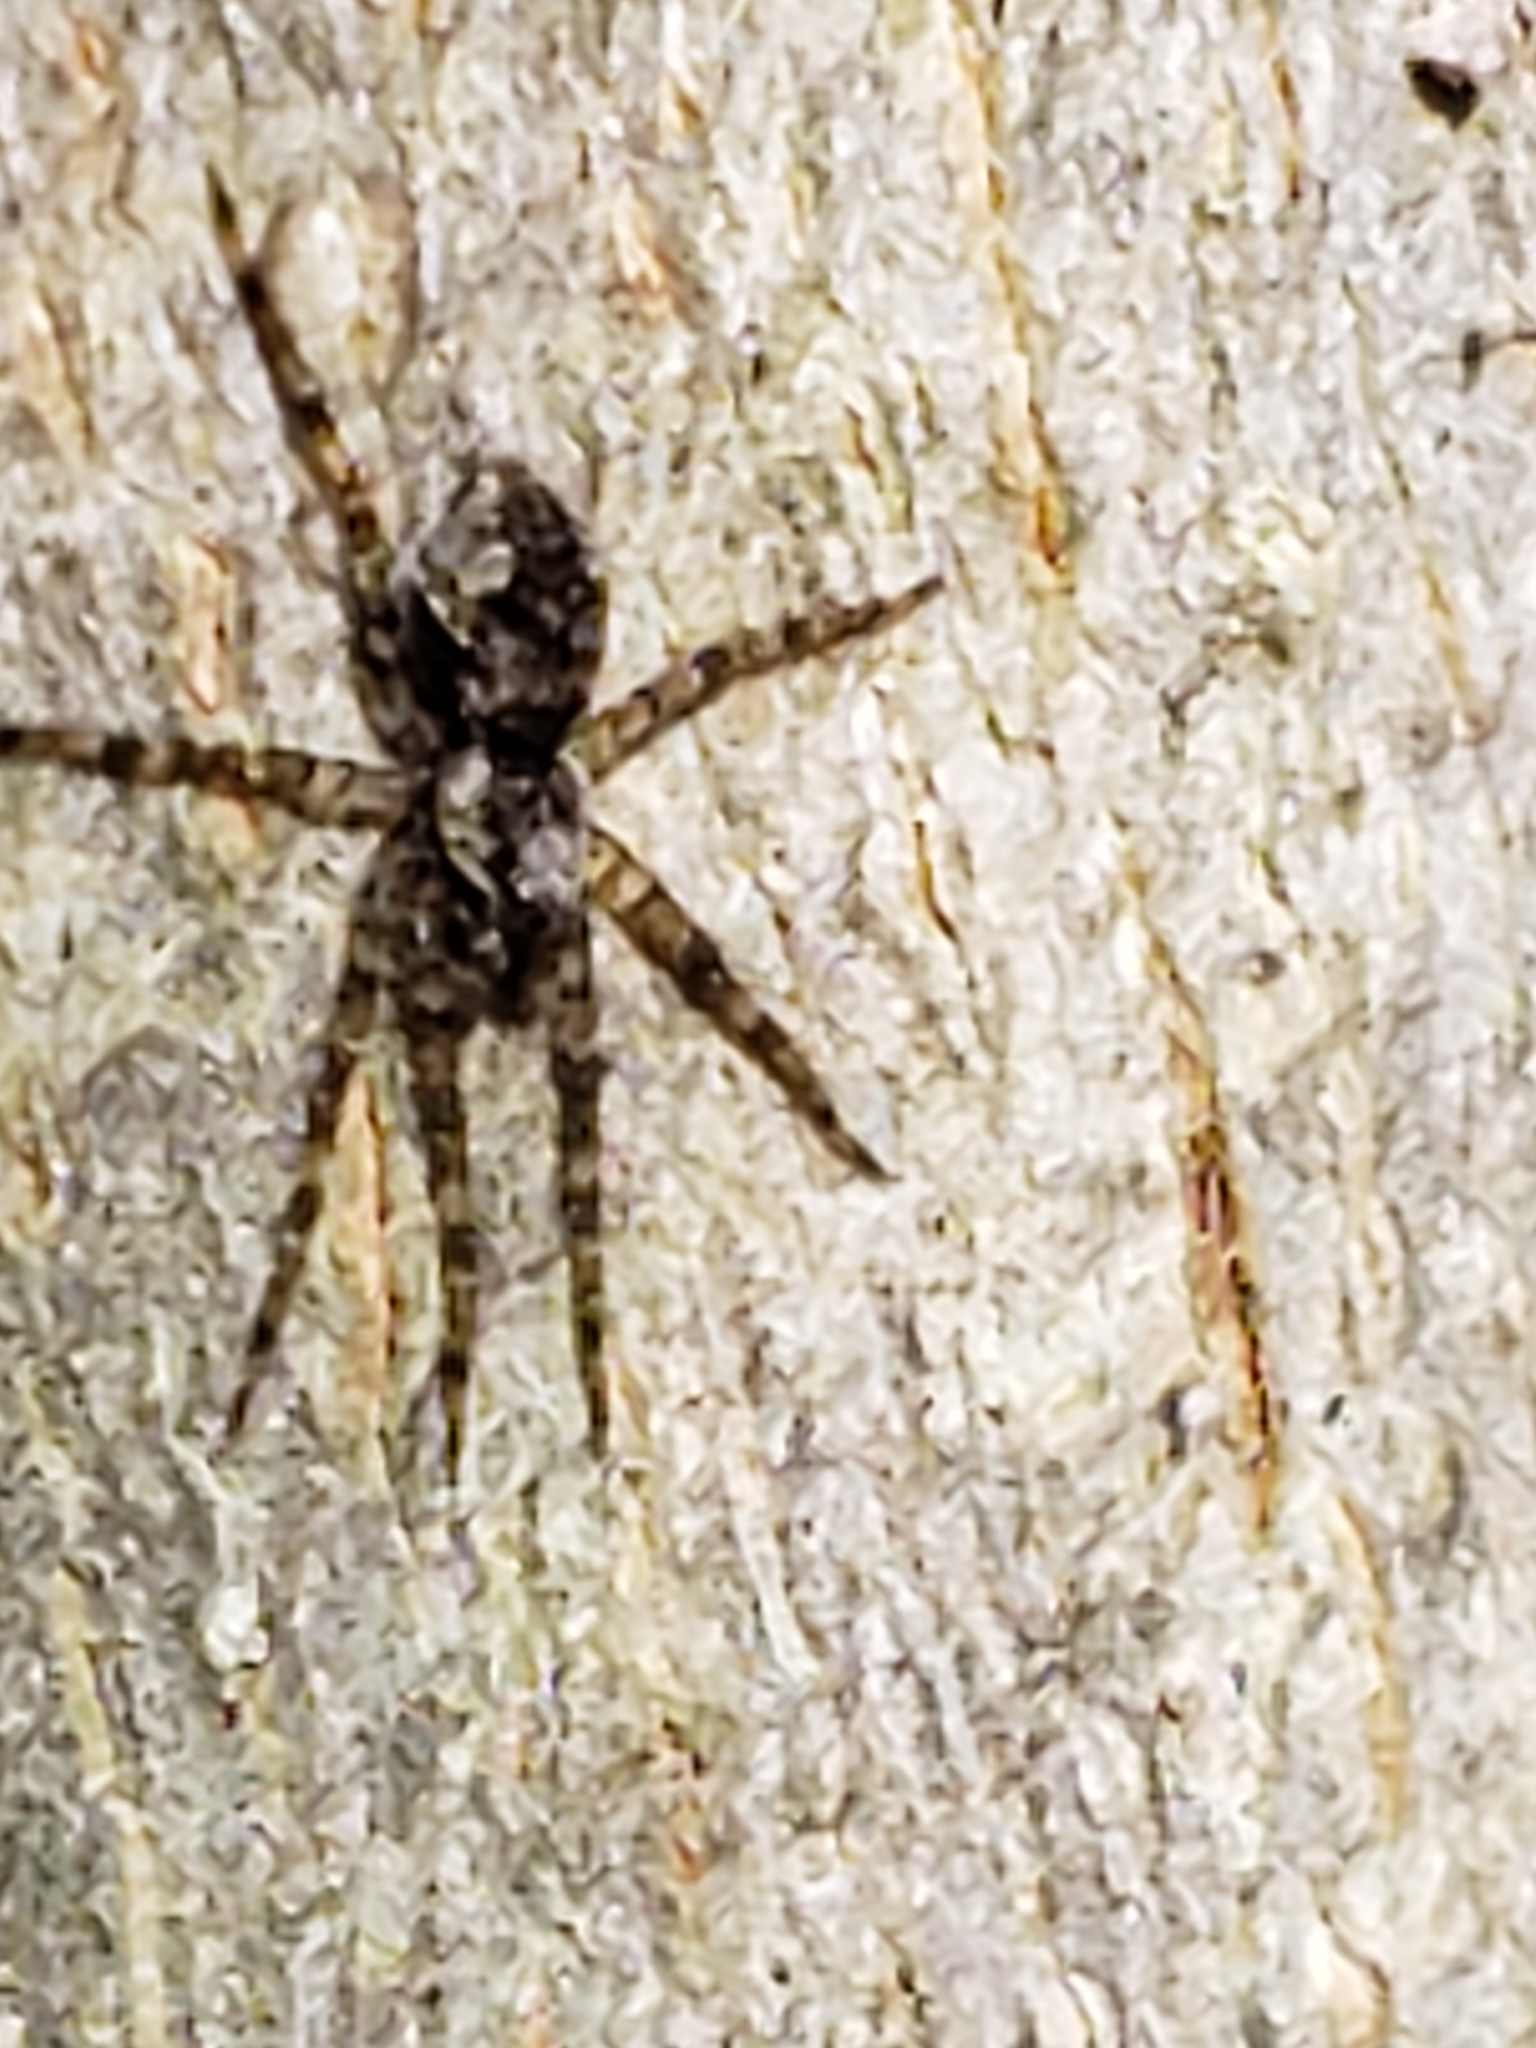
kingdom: Animalia
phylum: Arthropoda
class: Arachnida
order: Araneae
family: Pisauridae
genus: Dolomedes
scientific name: Dolomedes albineus
